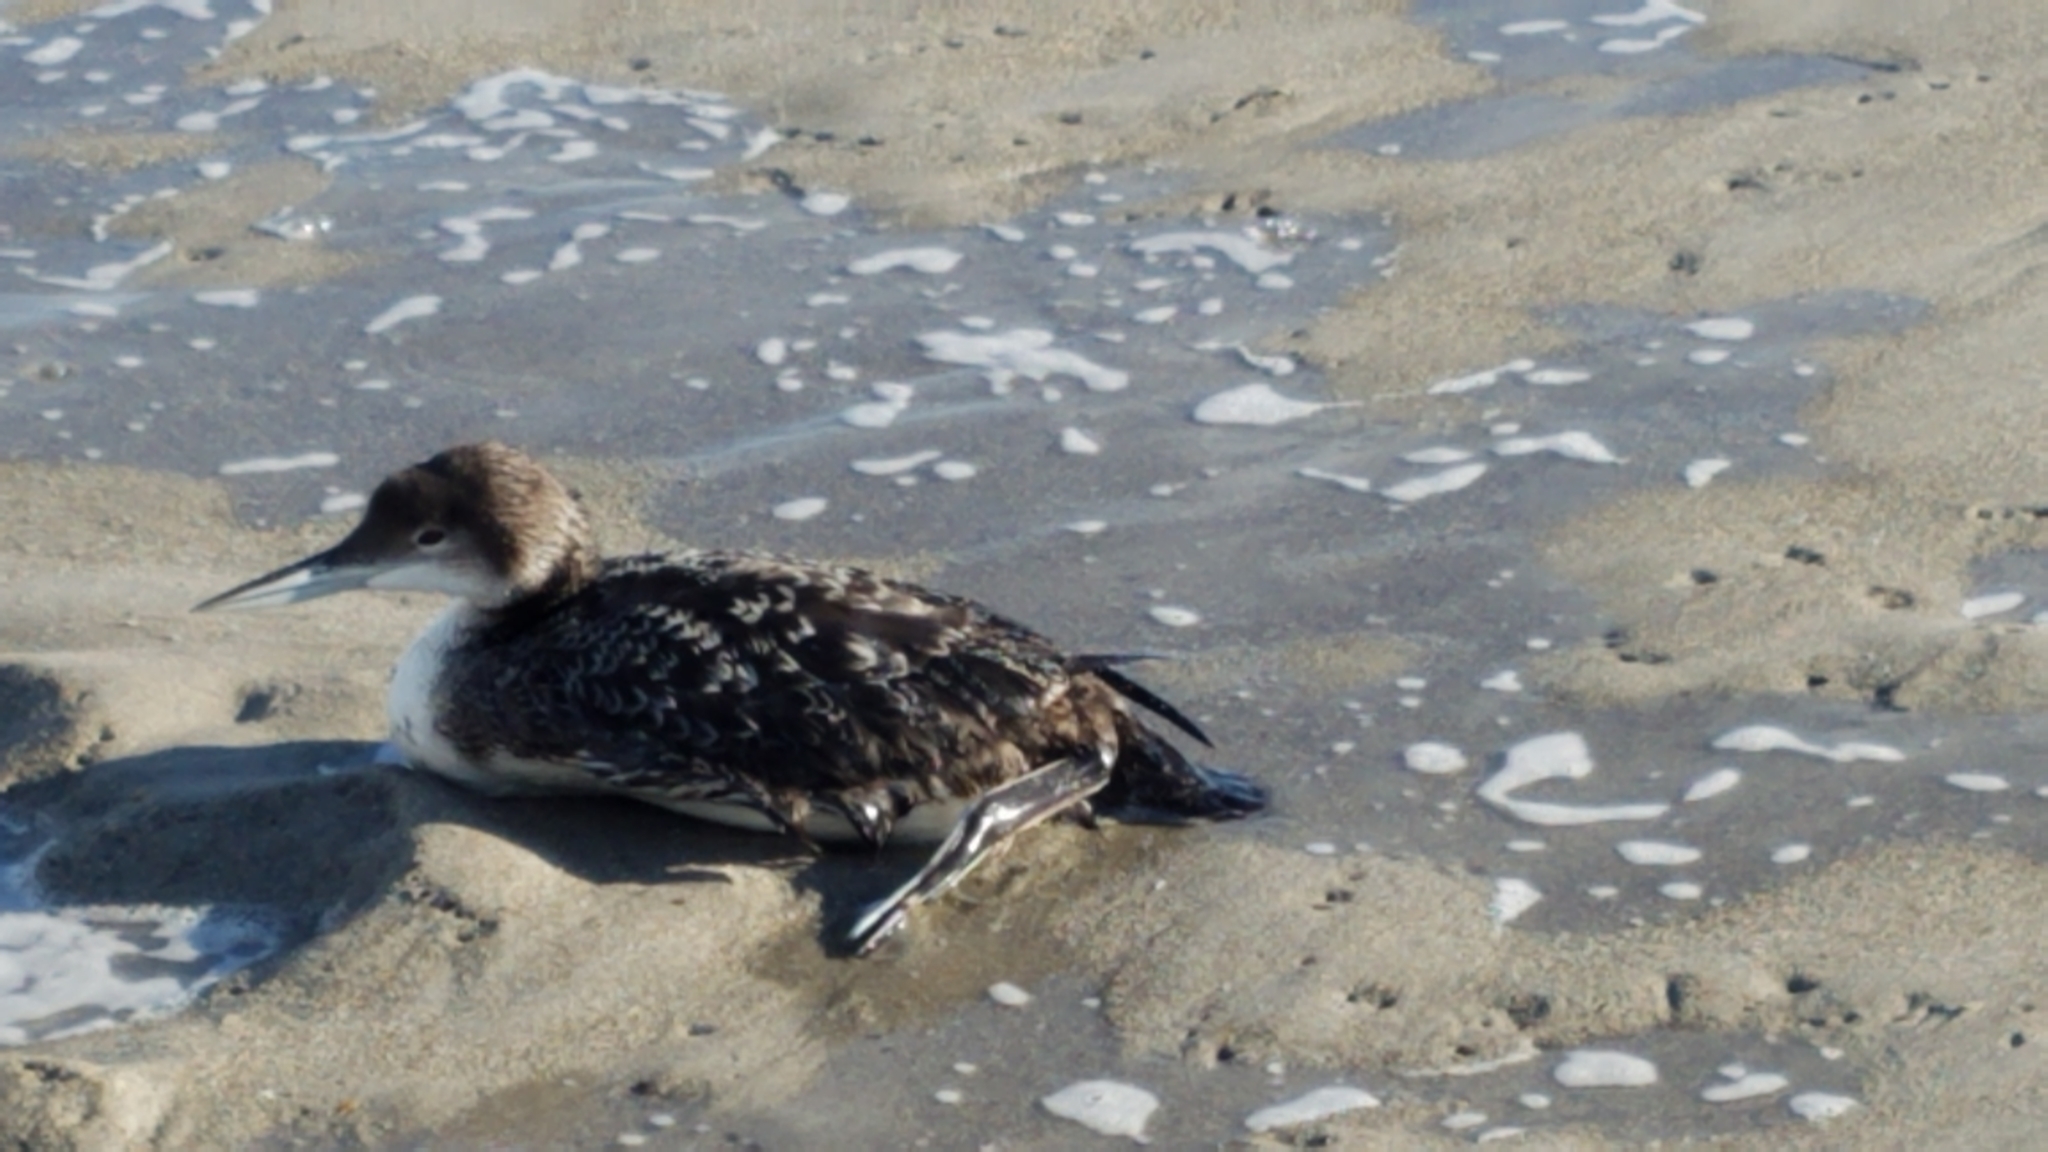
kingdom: Animalia
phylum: Chordata
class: Aves
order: Gaviiformes
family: Gaviidae
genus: Gavia
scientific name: Gavia immer
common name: Common loon
